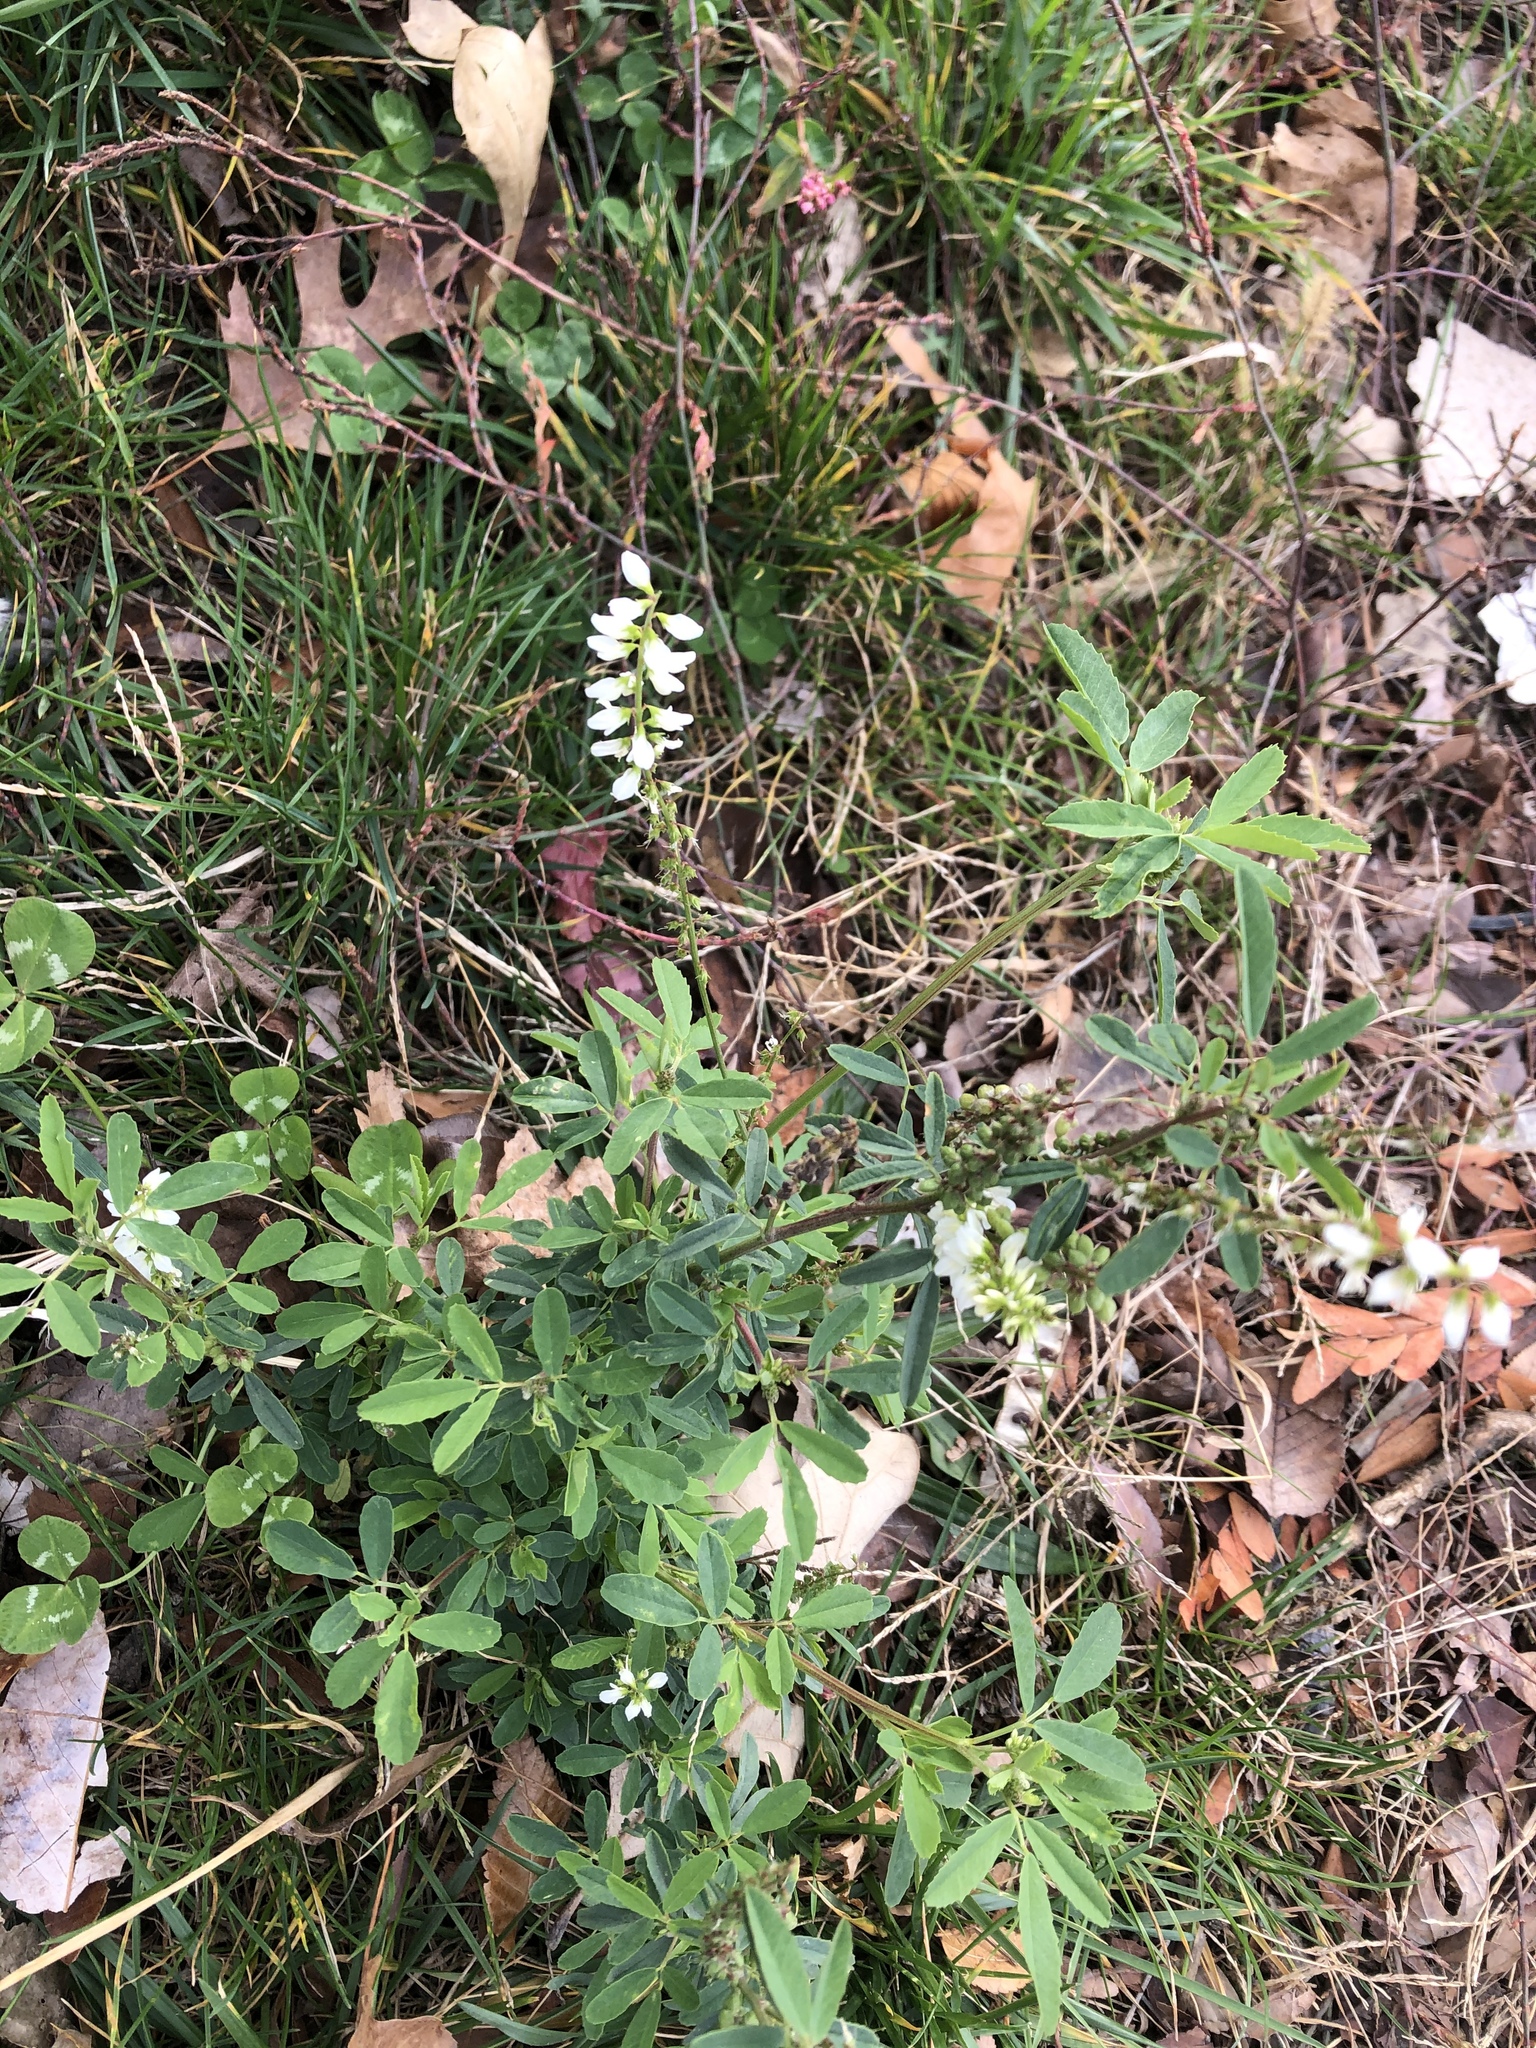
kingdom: Plantae
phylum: Tracheophyta
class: Magnoliopsida
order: Fabales
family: Fabaceae
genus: Melilotus
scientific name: Melilotus albus
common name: White melilot
